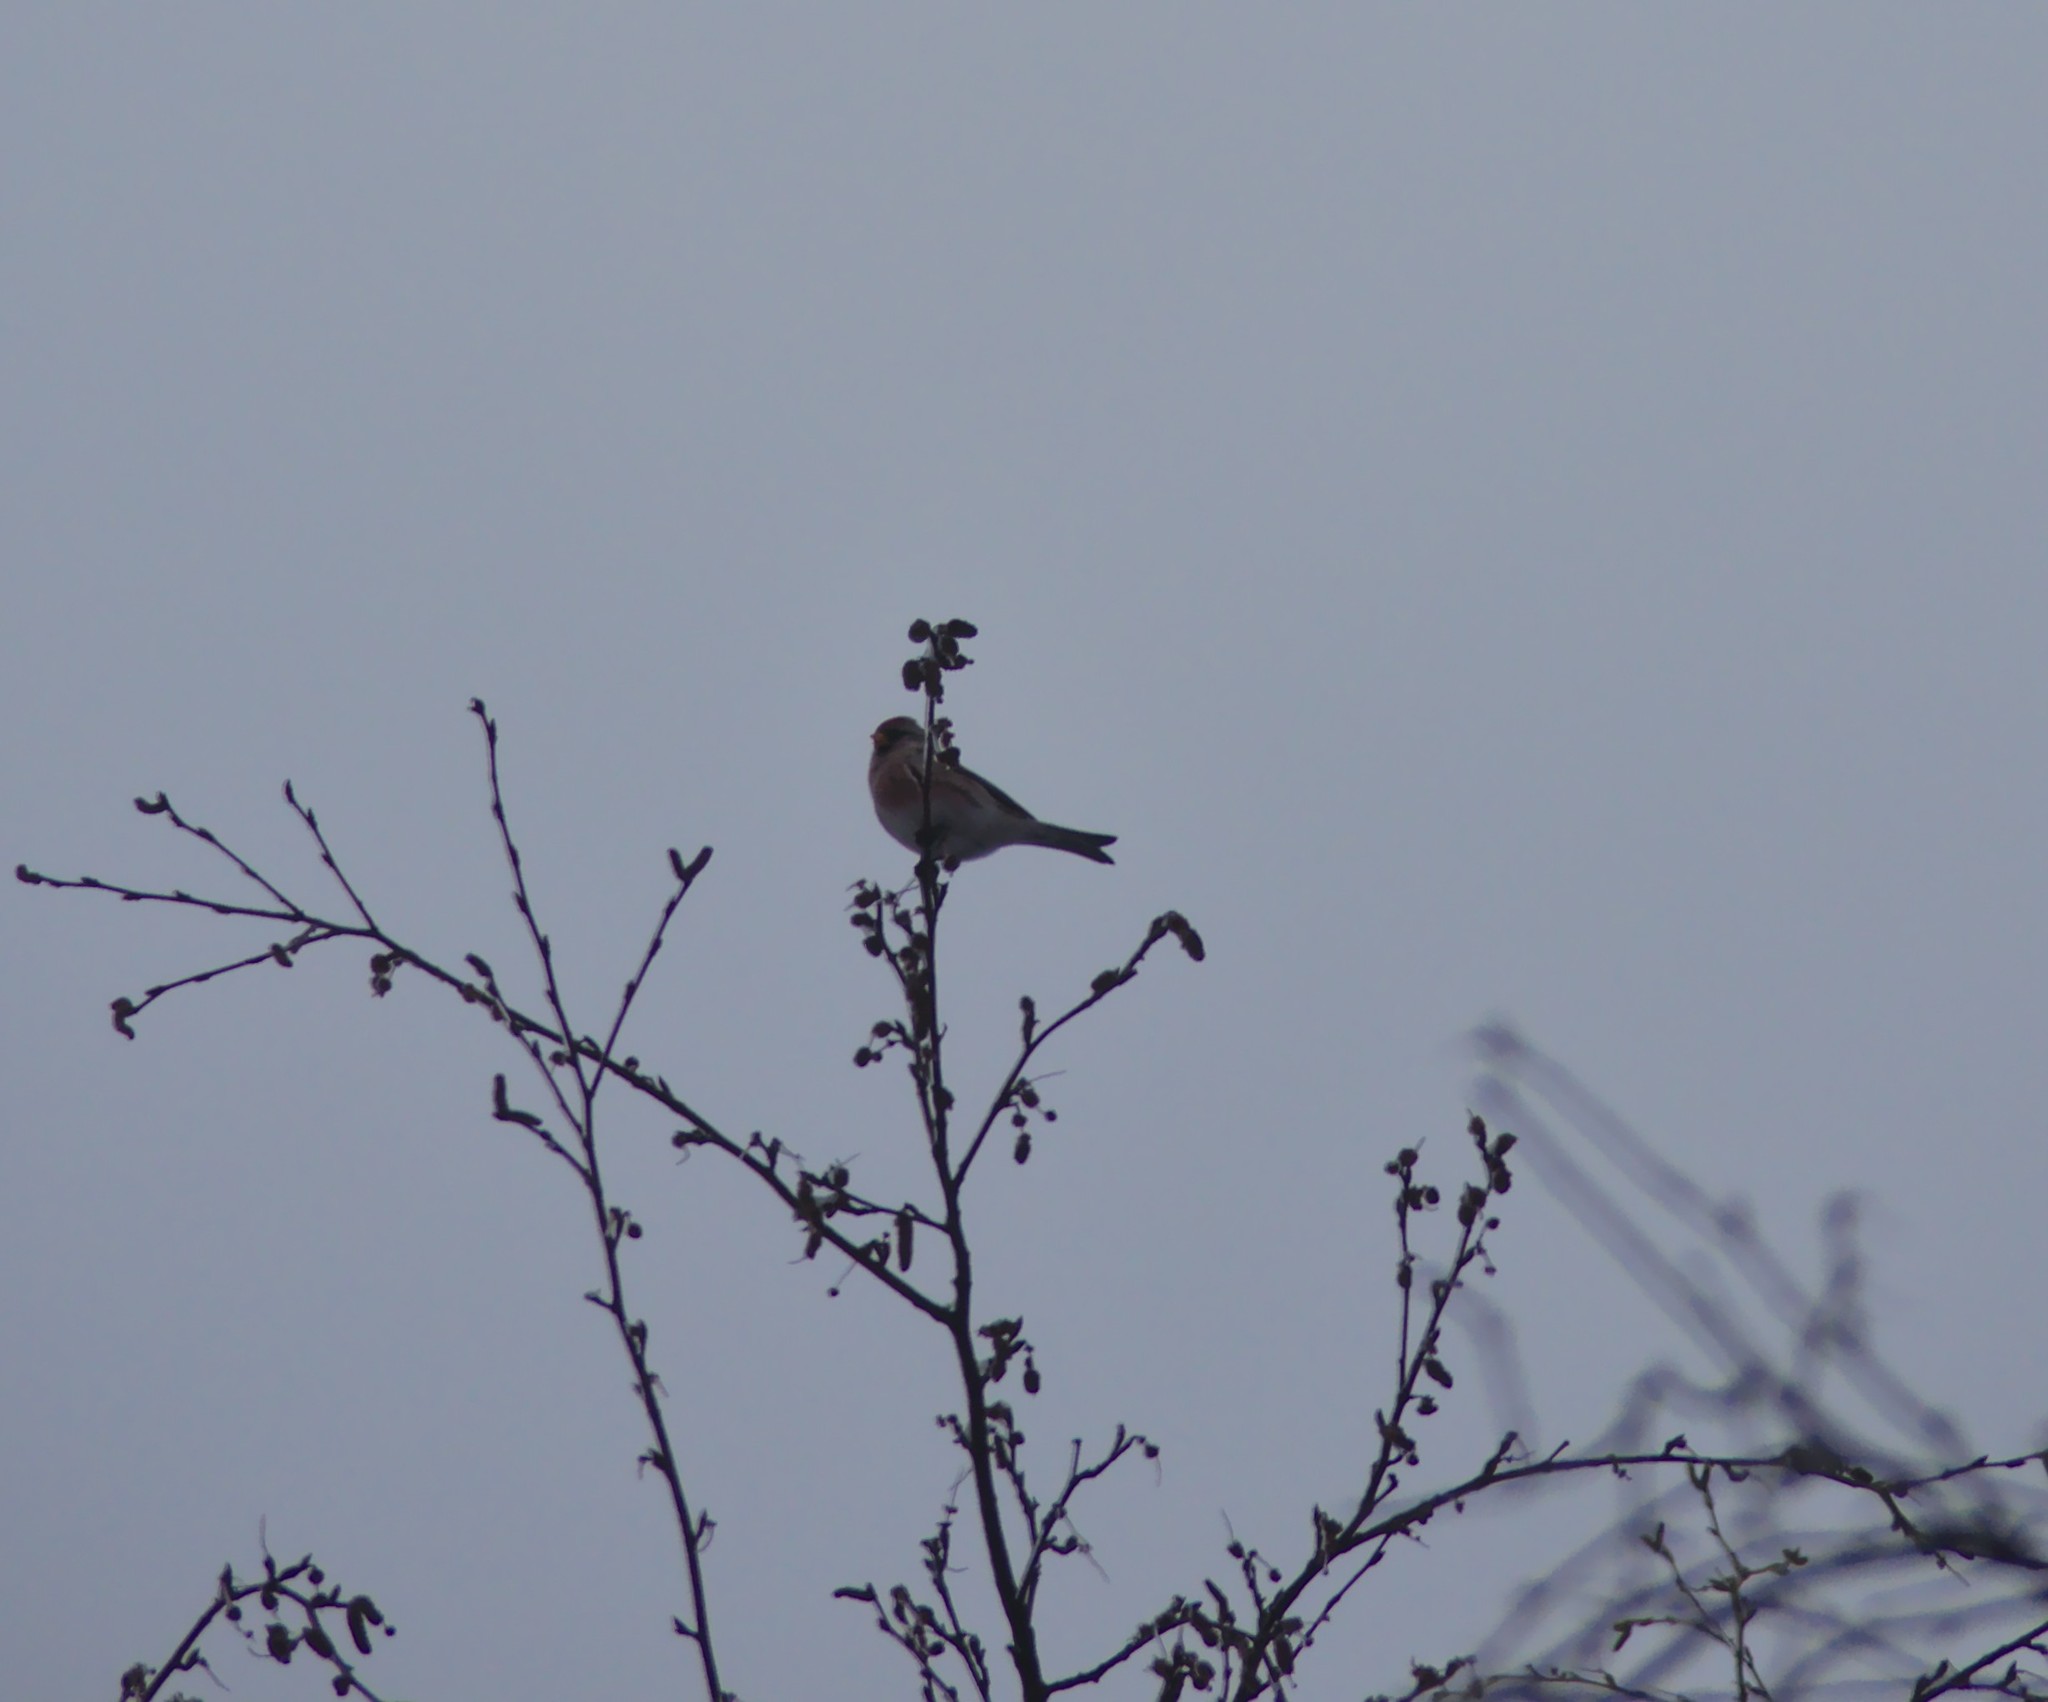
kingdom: Animalia
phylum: Chordata
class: Aves
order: Passeriformes
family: Fringillidae
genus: Acanthis
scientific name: Acanthis flammea
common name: Common redpoll
